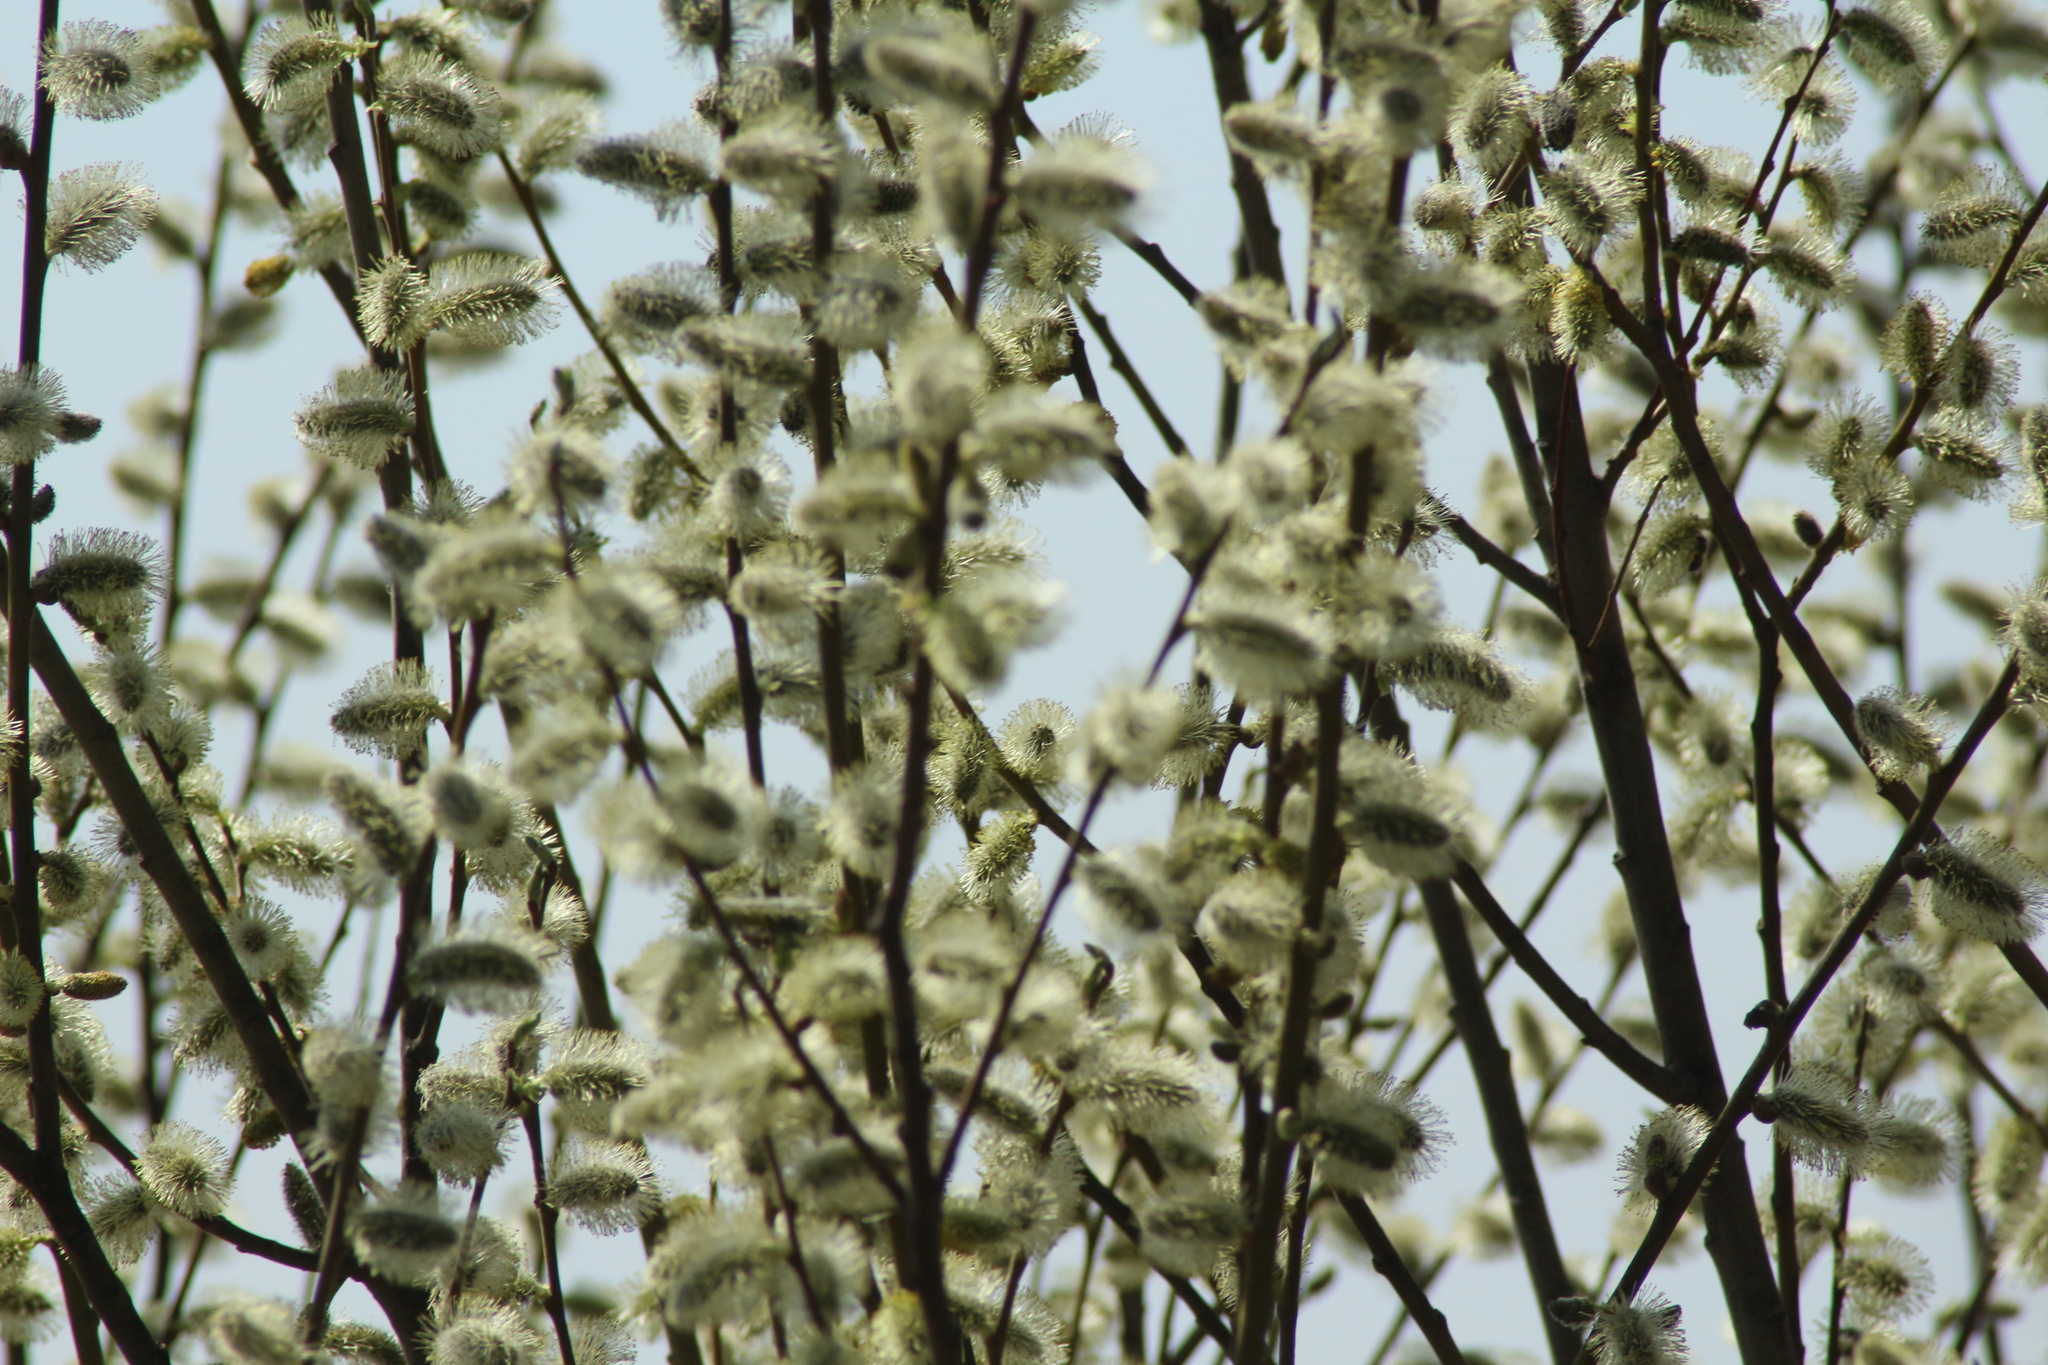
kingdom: Plantae
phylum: Tracheophyta
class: Magnoliopsida
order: Malpighiales
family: Salicaceae
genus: Salix
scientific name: Salix caprea
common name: Goat willow
